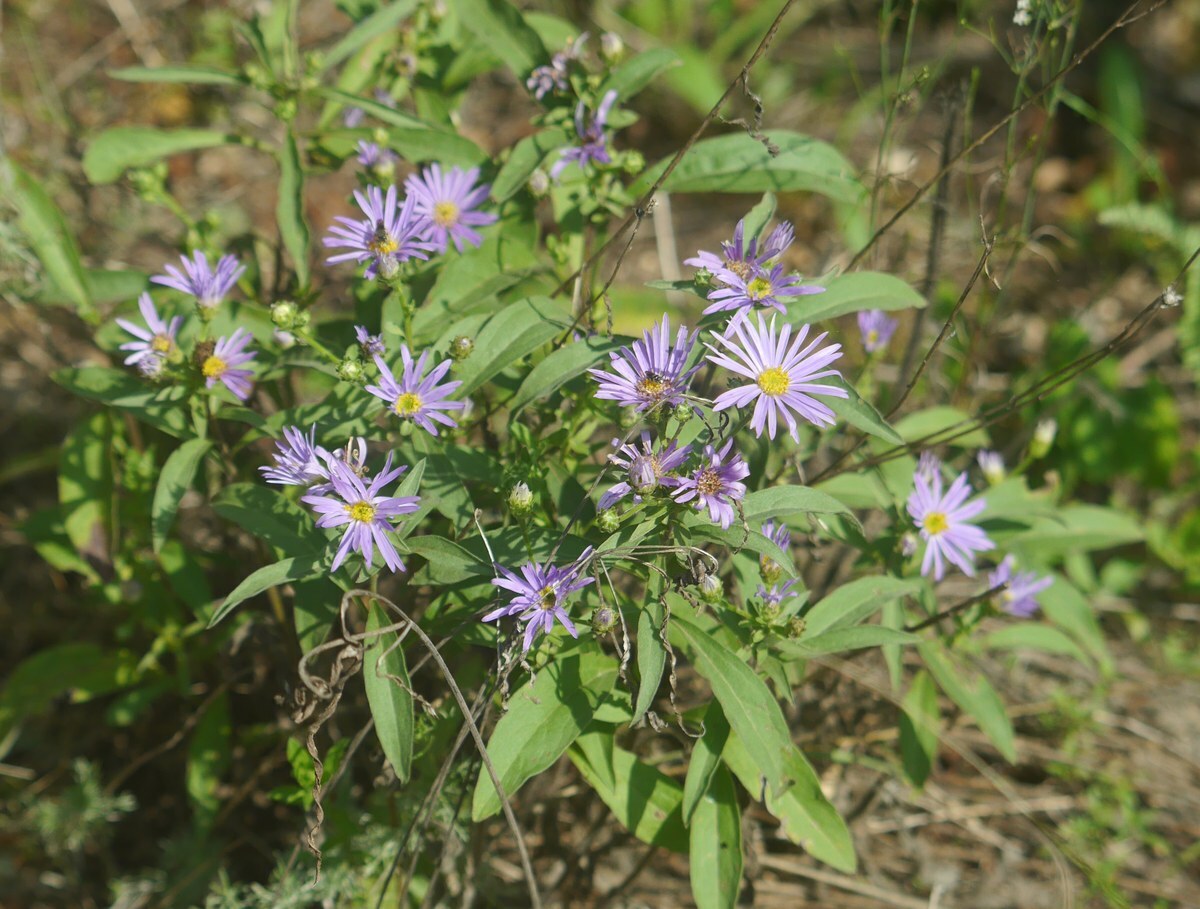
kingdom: Plantae
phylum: Tracheophyta
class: Magnoliopsida
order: Asterales
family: Asteraceae
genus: Aster
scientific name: Aster amellus
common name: European michaelmas daisy
